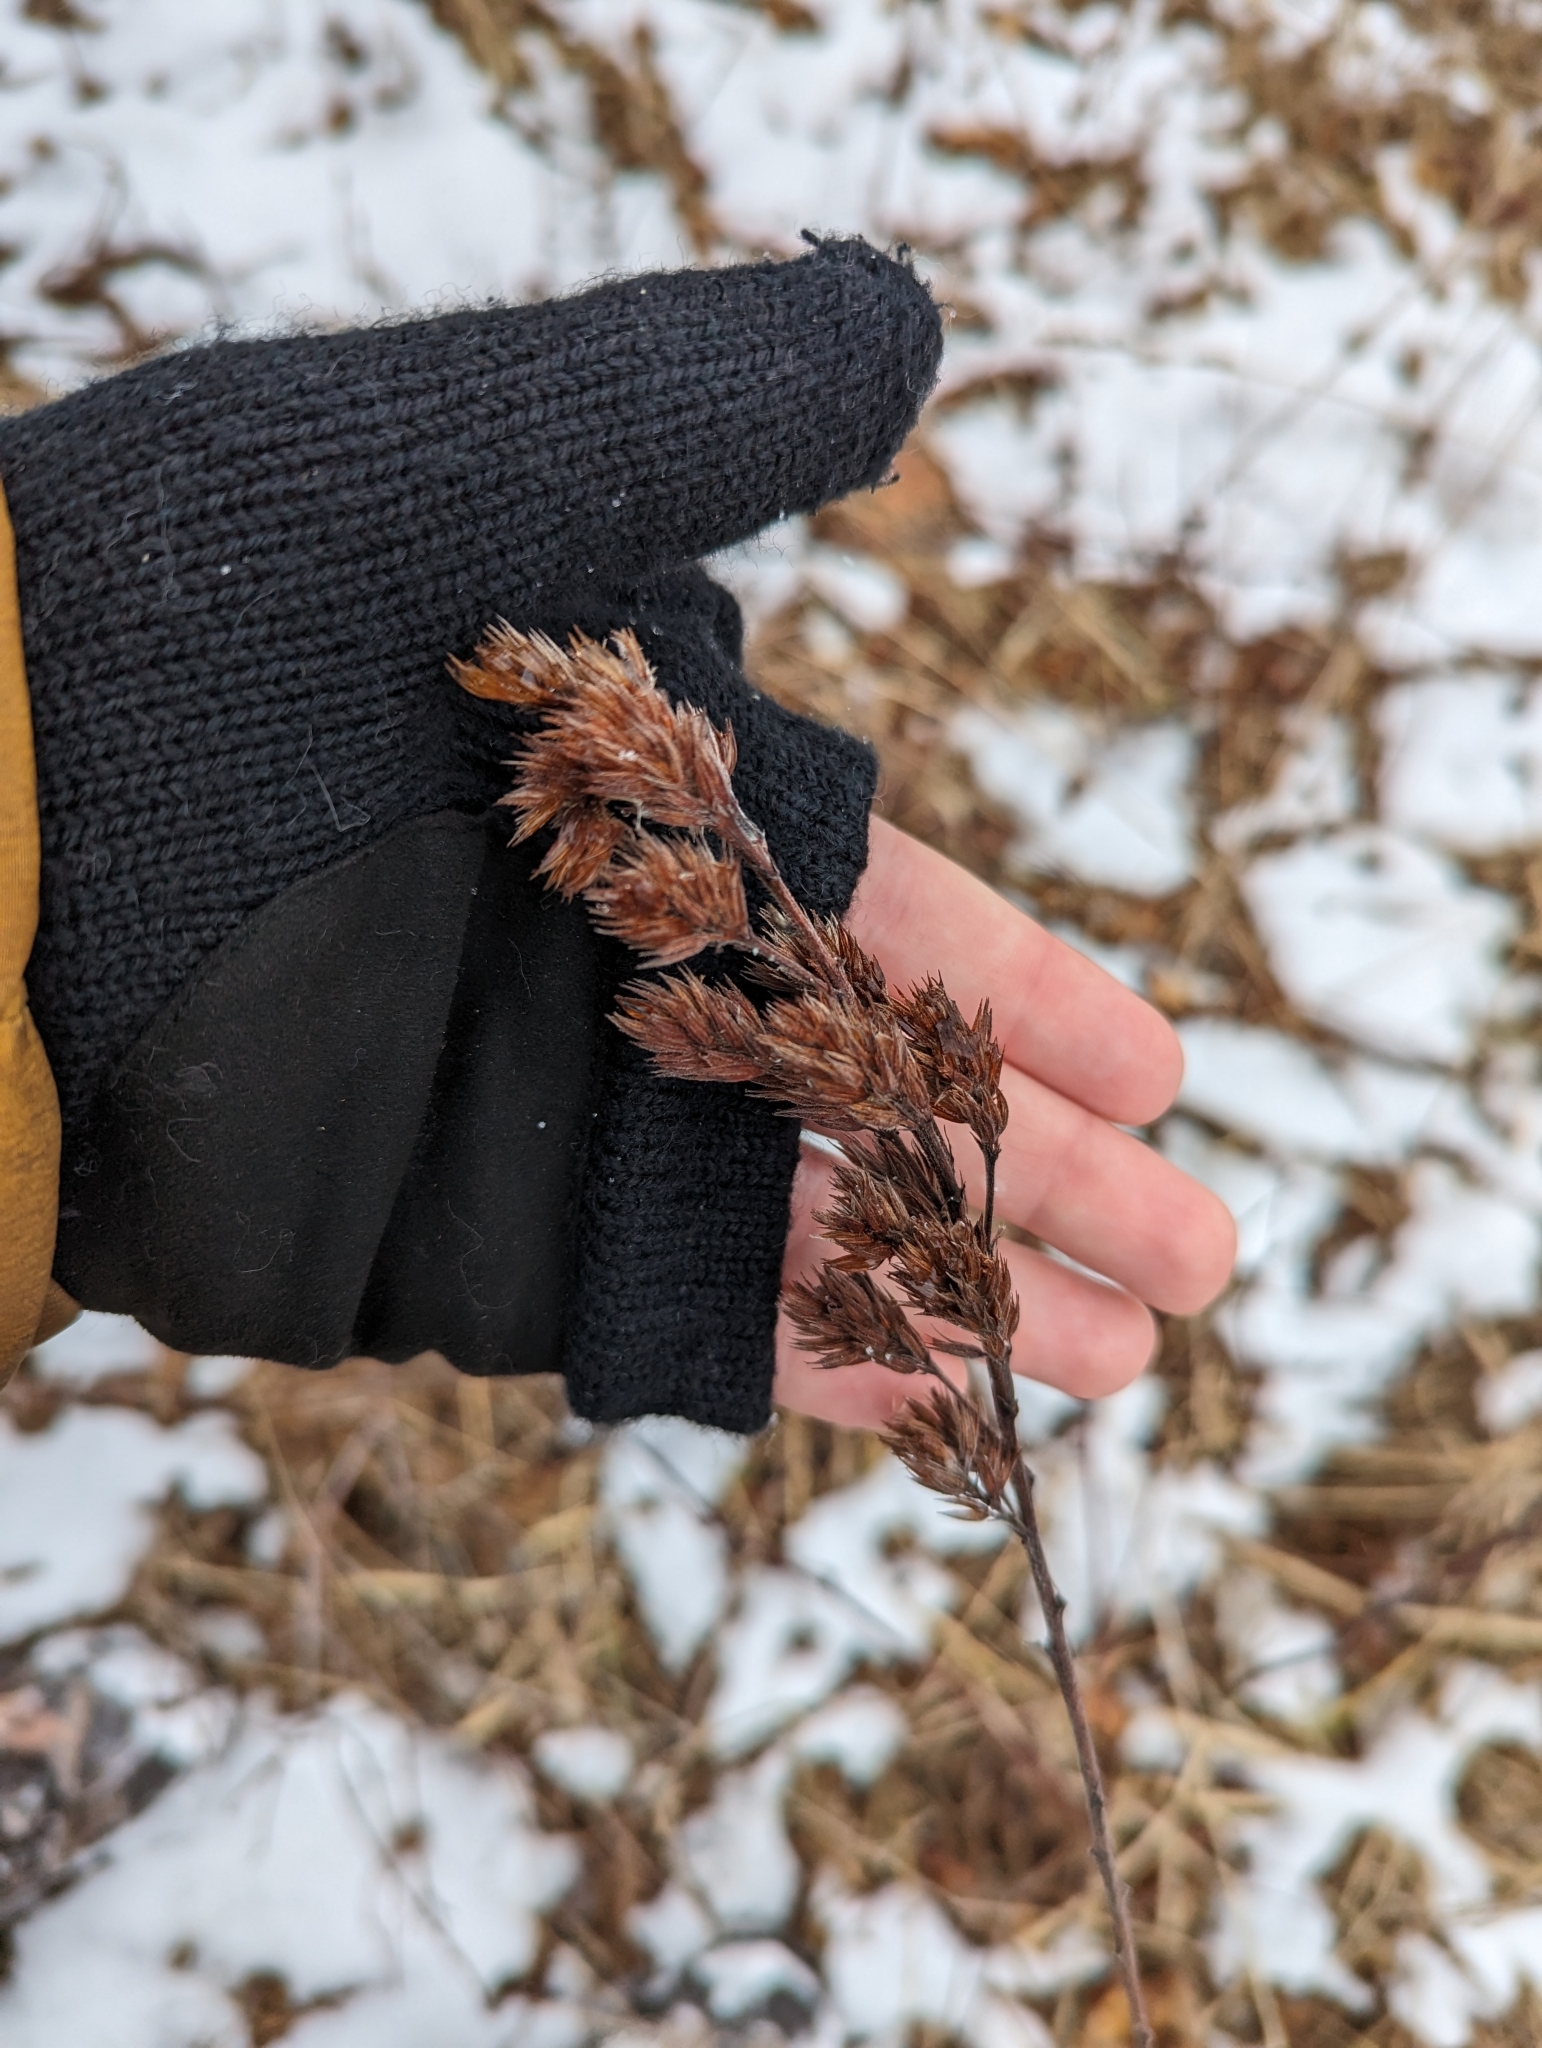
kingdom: Plantae
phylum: Tracheophyta
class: Magnoliopsida
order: Fabales
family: Fabaceae
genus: Lespedeza
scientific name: Lespedeza capitata
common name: Dusty clover
